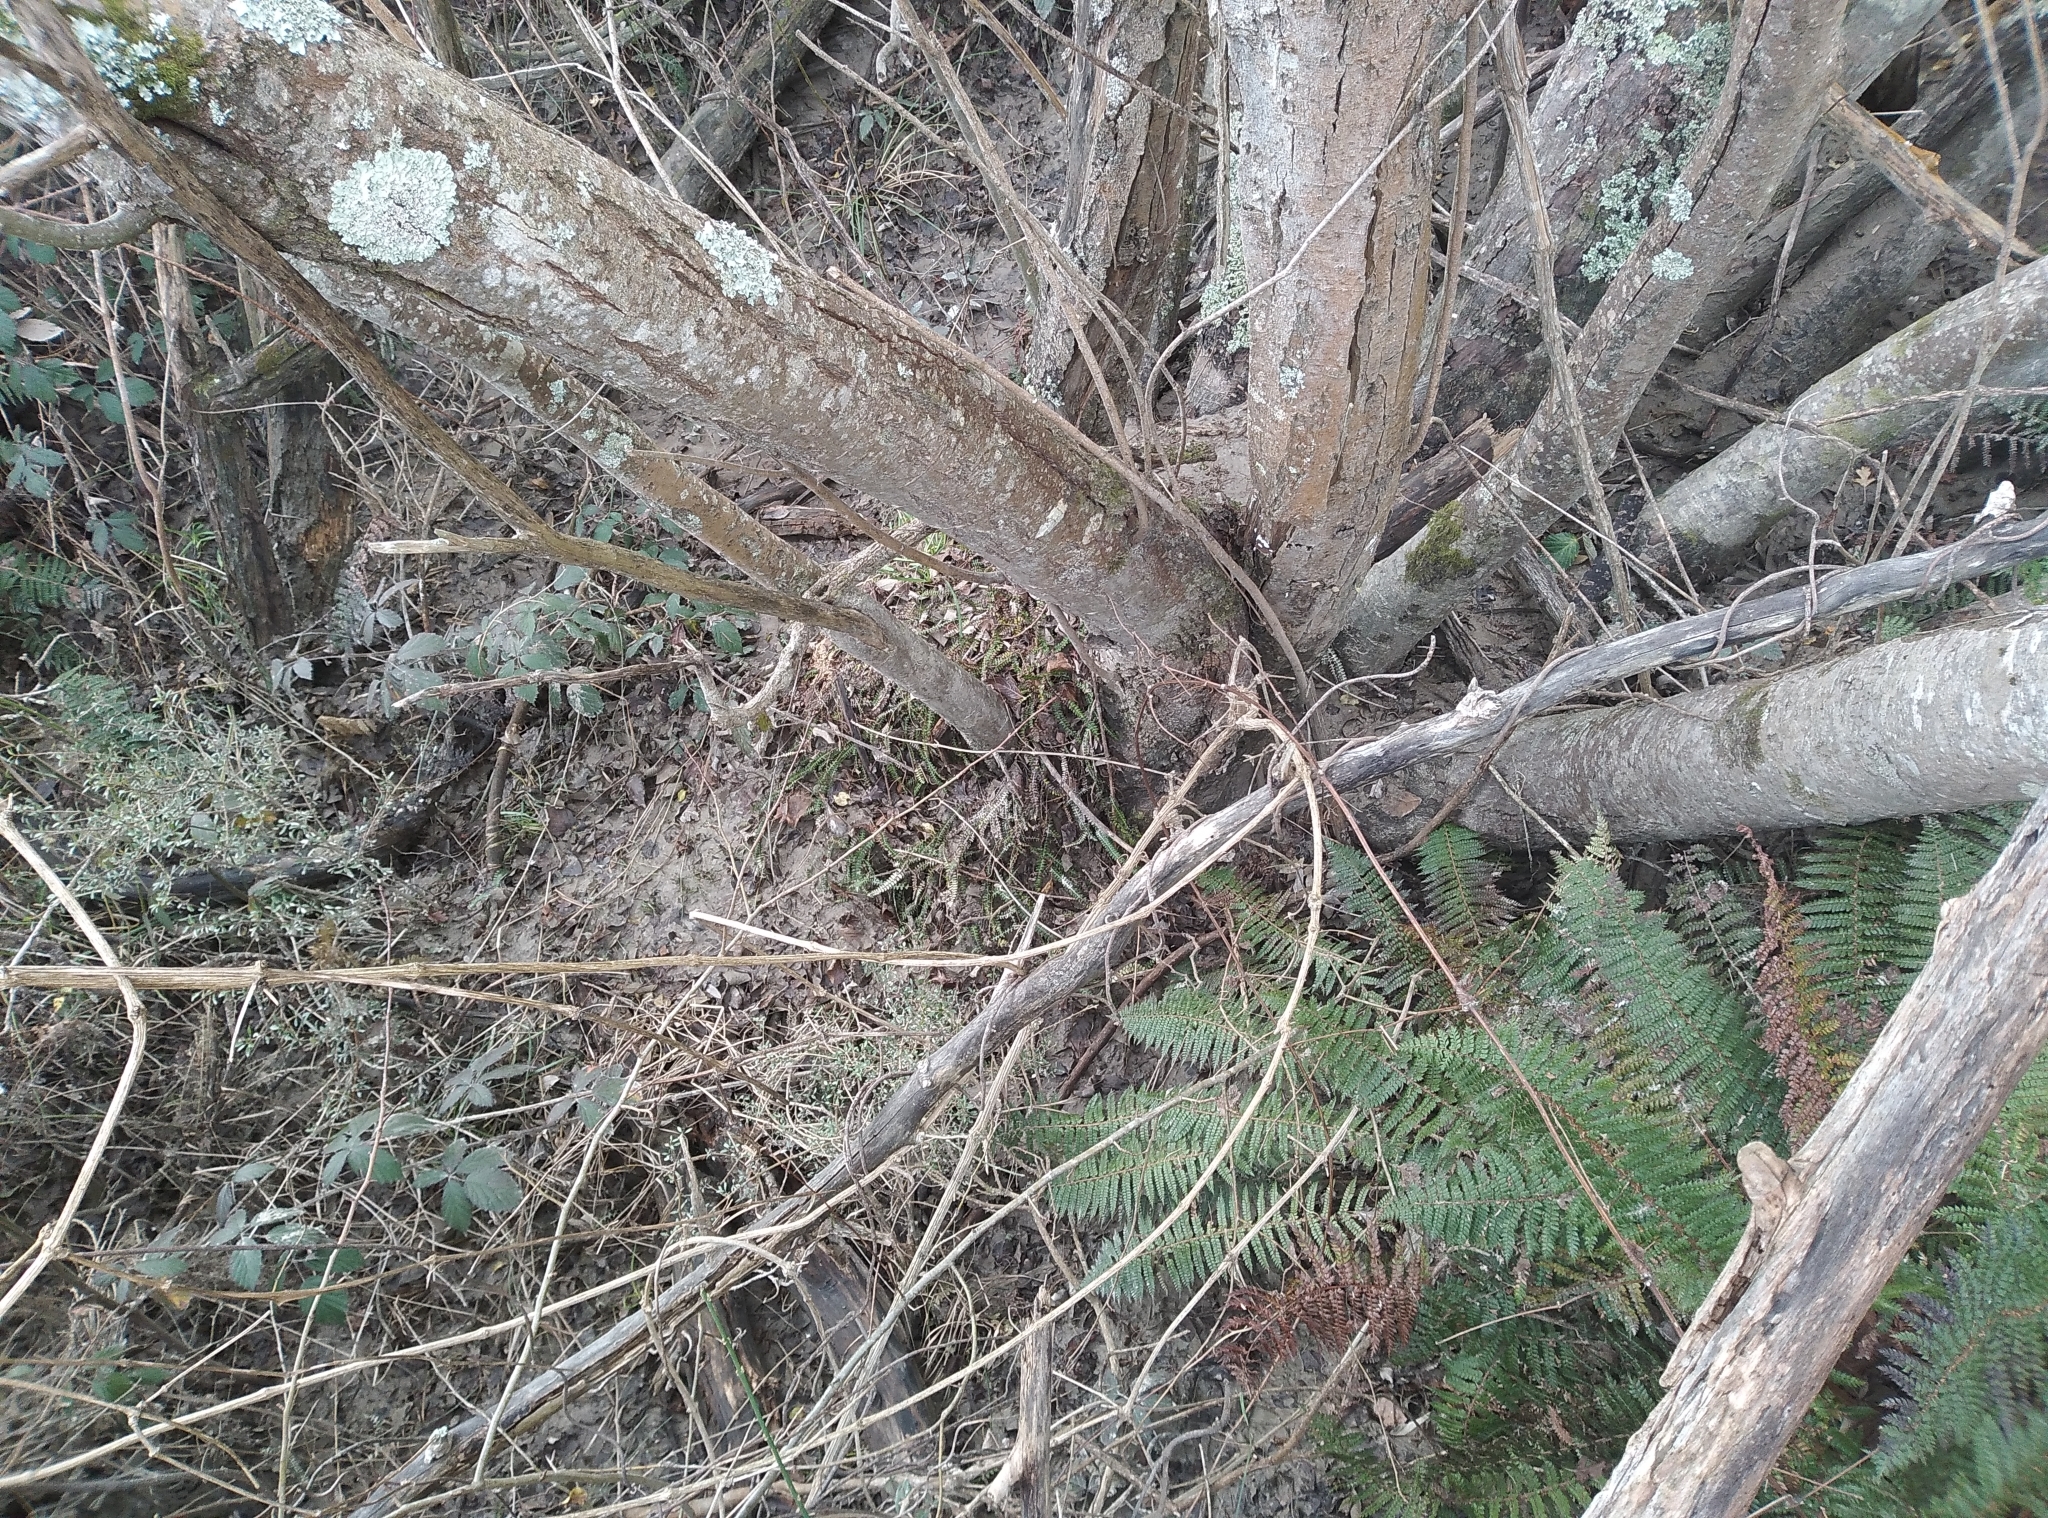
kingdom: Plantae
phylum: Tracheophyta
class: Polypodiopsida
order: Polypodiales
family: Dryopteridaceae
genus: Polystichum
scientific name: Polystichum vestitum
